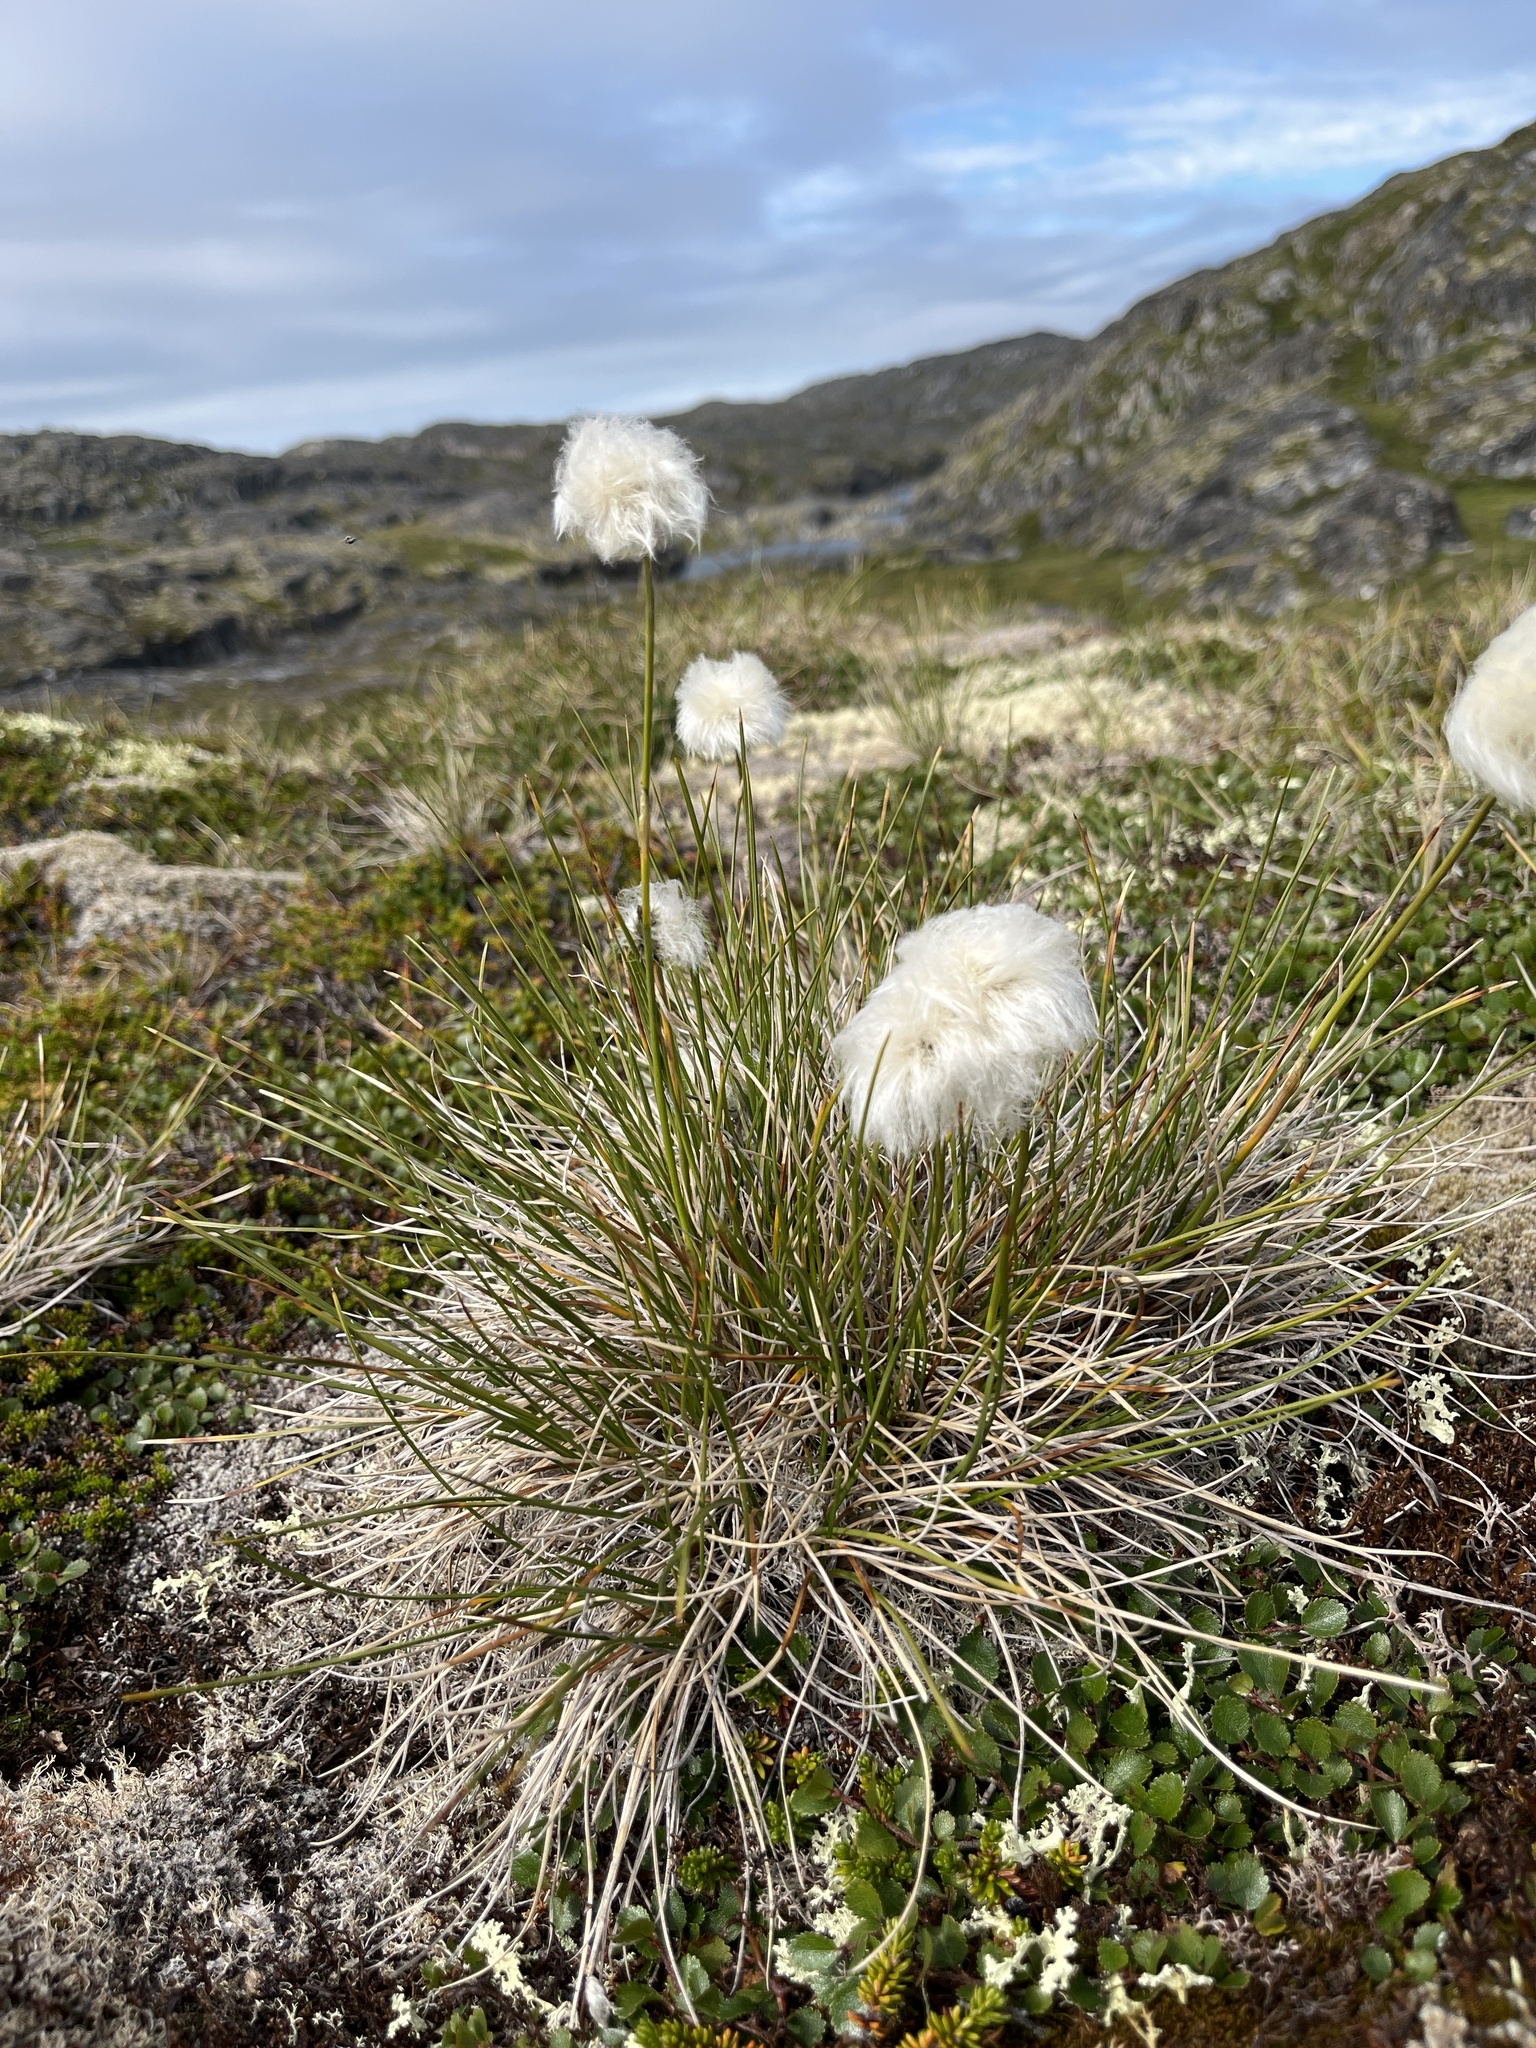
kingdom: Plantae
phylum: Tracheophyta
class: Liliopsida
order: Poales
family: Cyperaceae
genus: Eriophorum
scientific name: Eriophorum vaginatum
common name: Hare's-tail cottongrass
